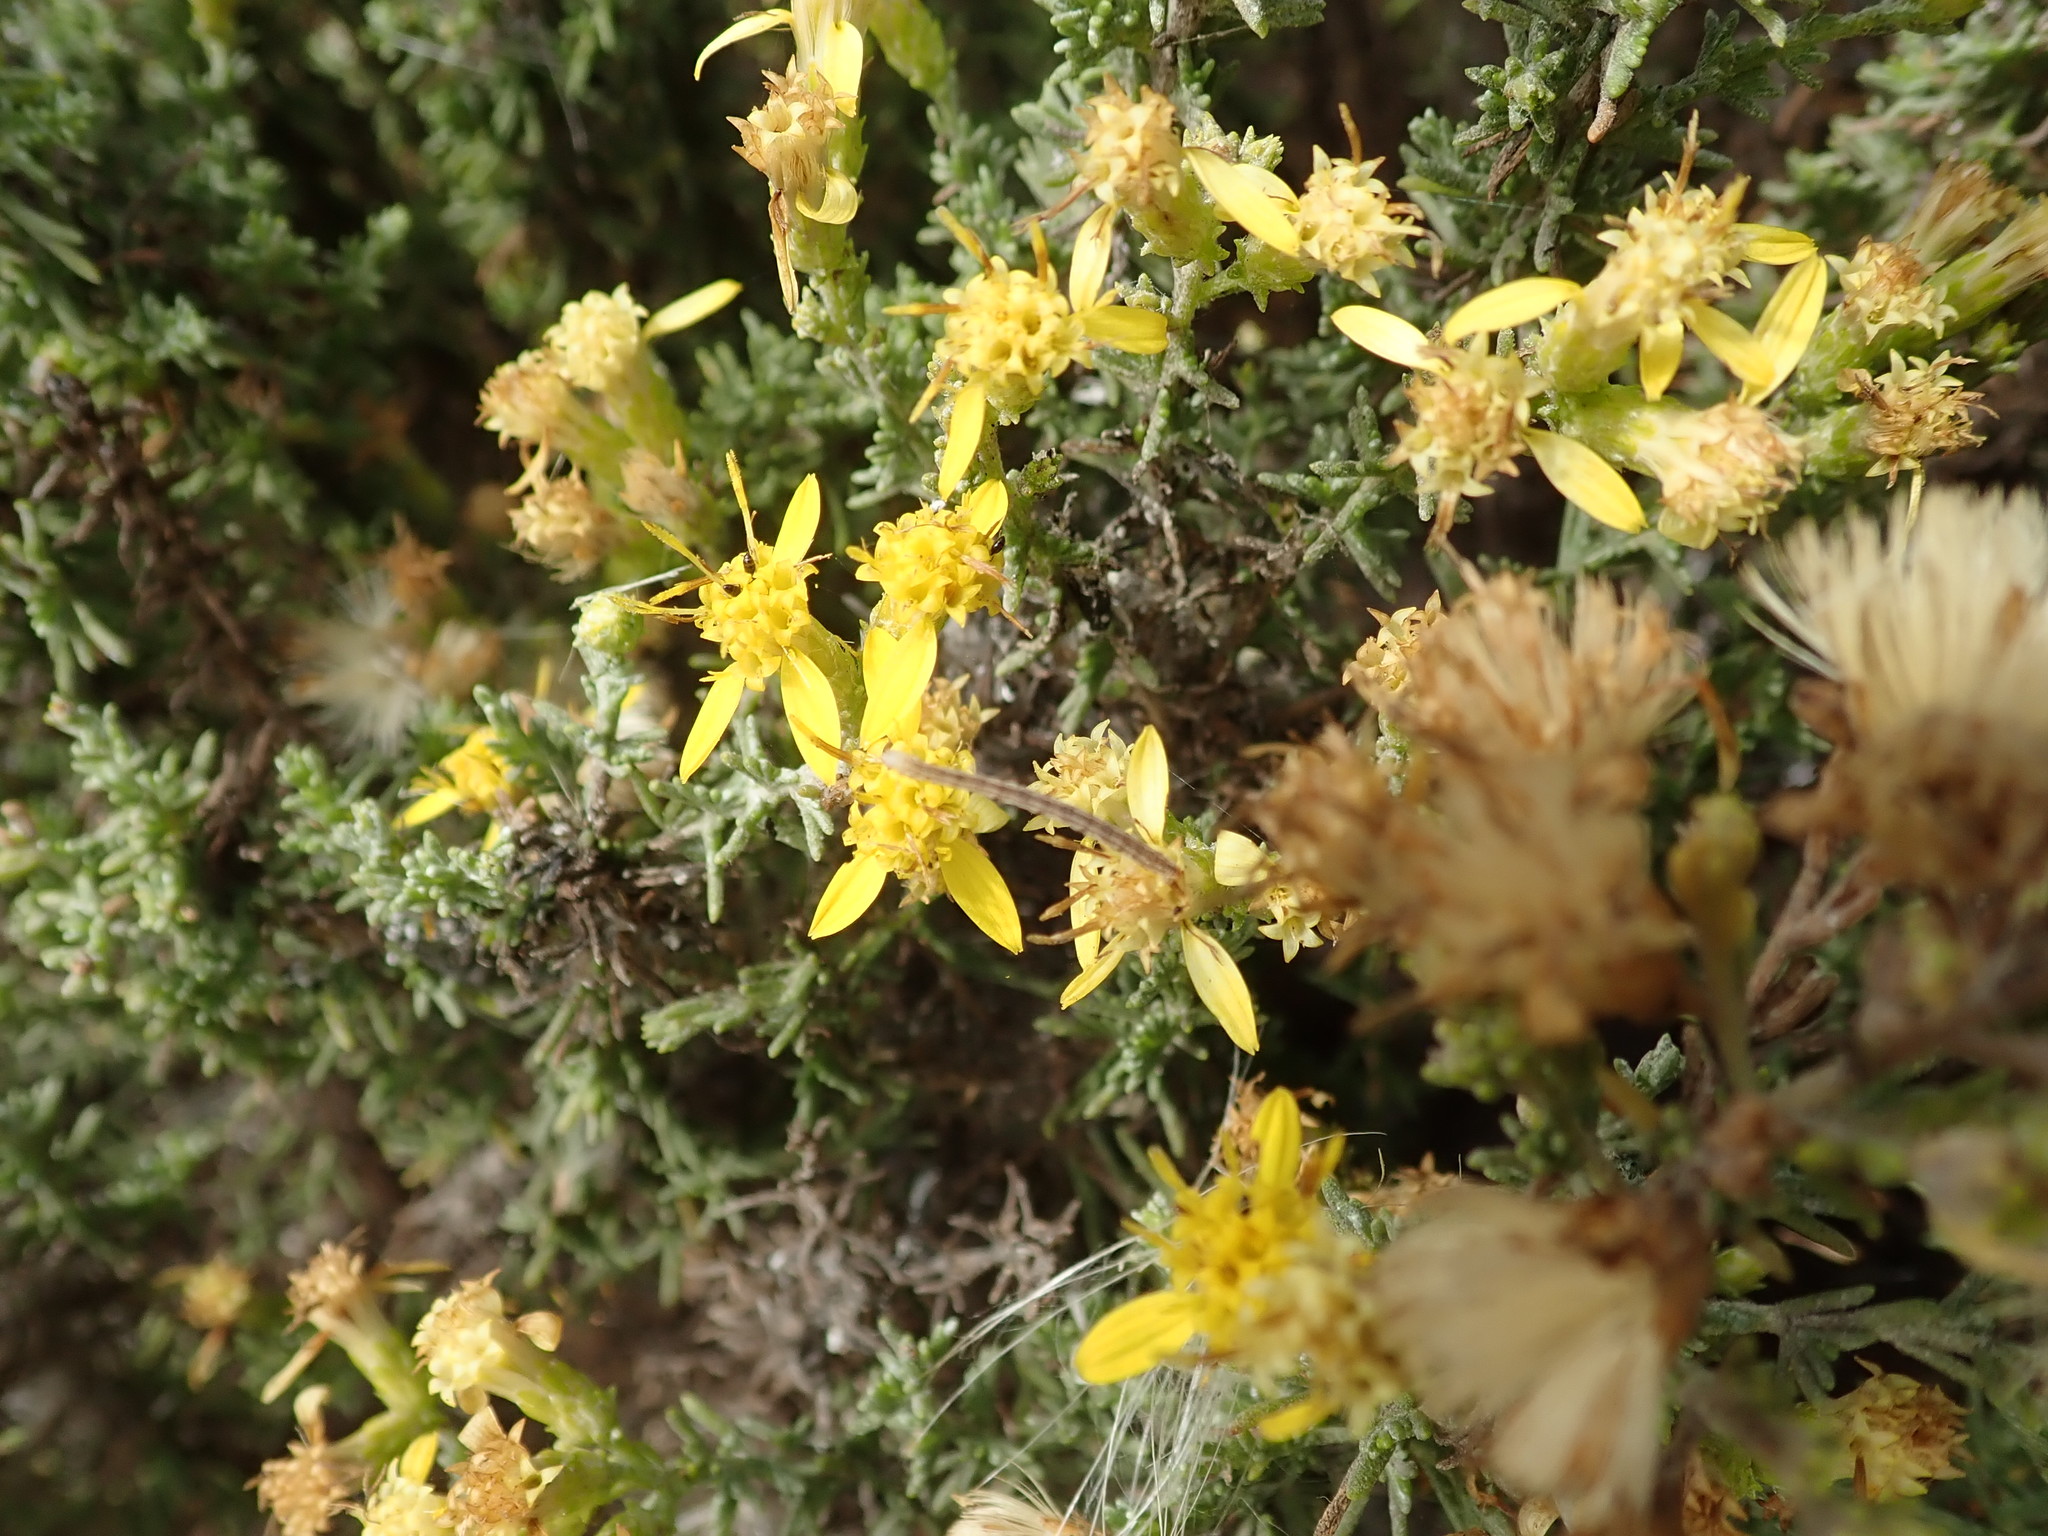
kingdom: Plantae
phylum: Tracheophyta
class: Magnoliopsida
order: Asterales
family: Asteraceae
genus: Ericameria
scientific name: Ericameria ericoides
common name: California goldenbush
